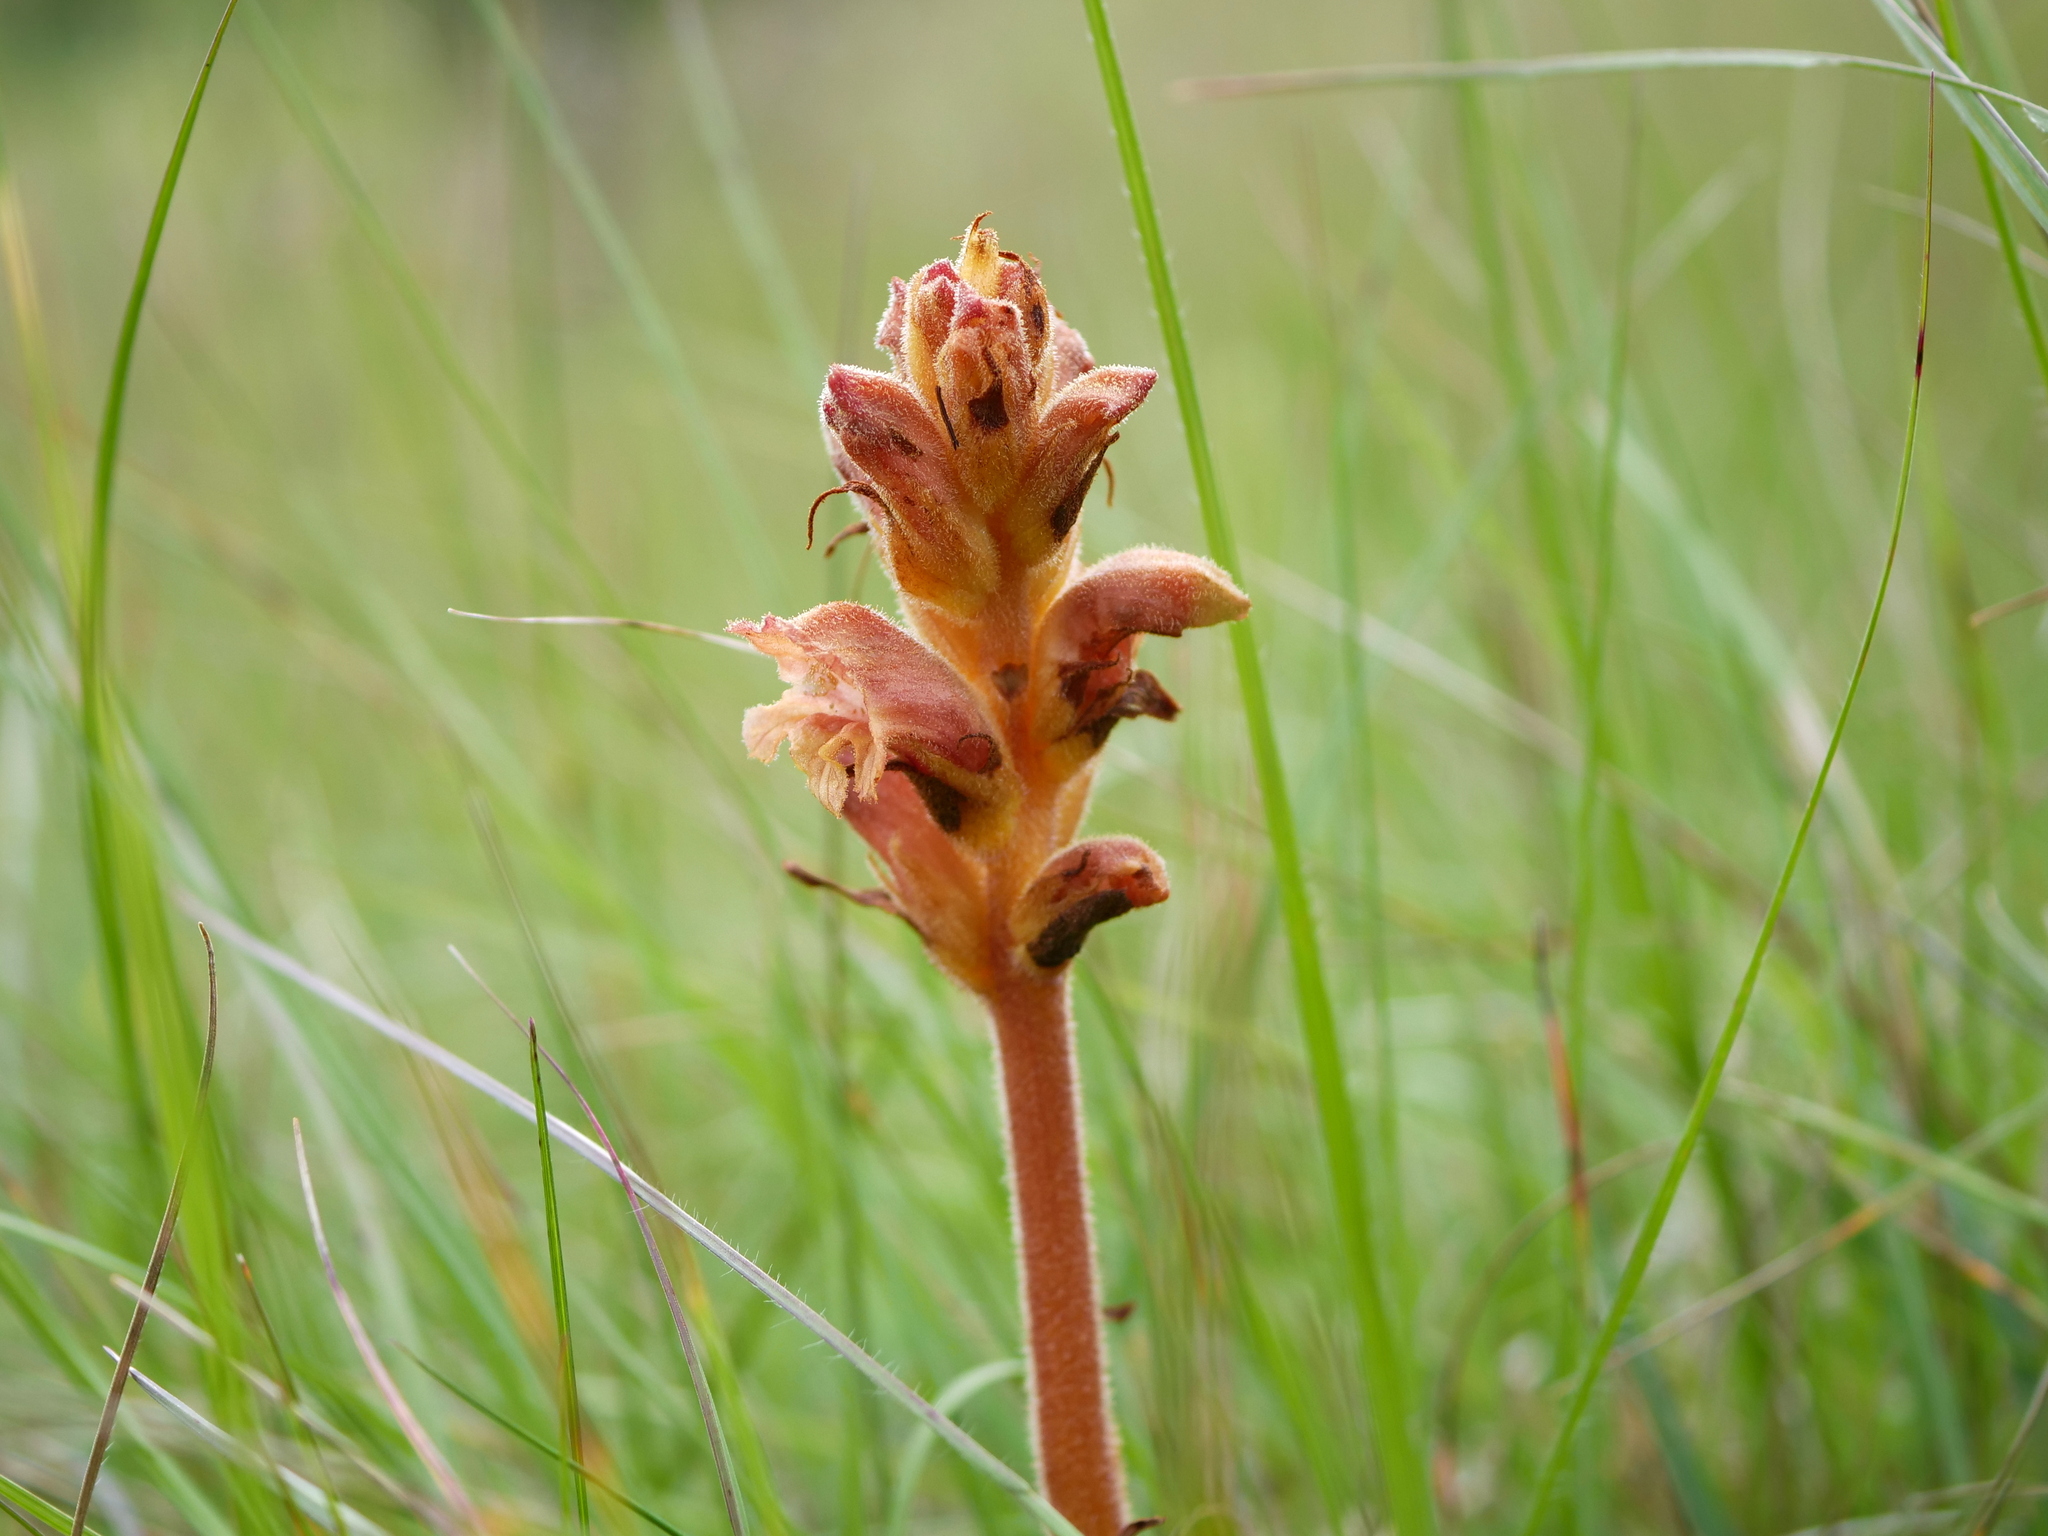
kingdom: Plantae
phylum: Tracheophyta
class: Magnoliopsida
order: Lamiales
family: Orobanchaceae
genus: Orobanche
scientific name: Orobanche teucrii
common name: Germander broomrape
